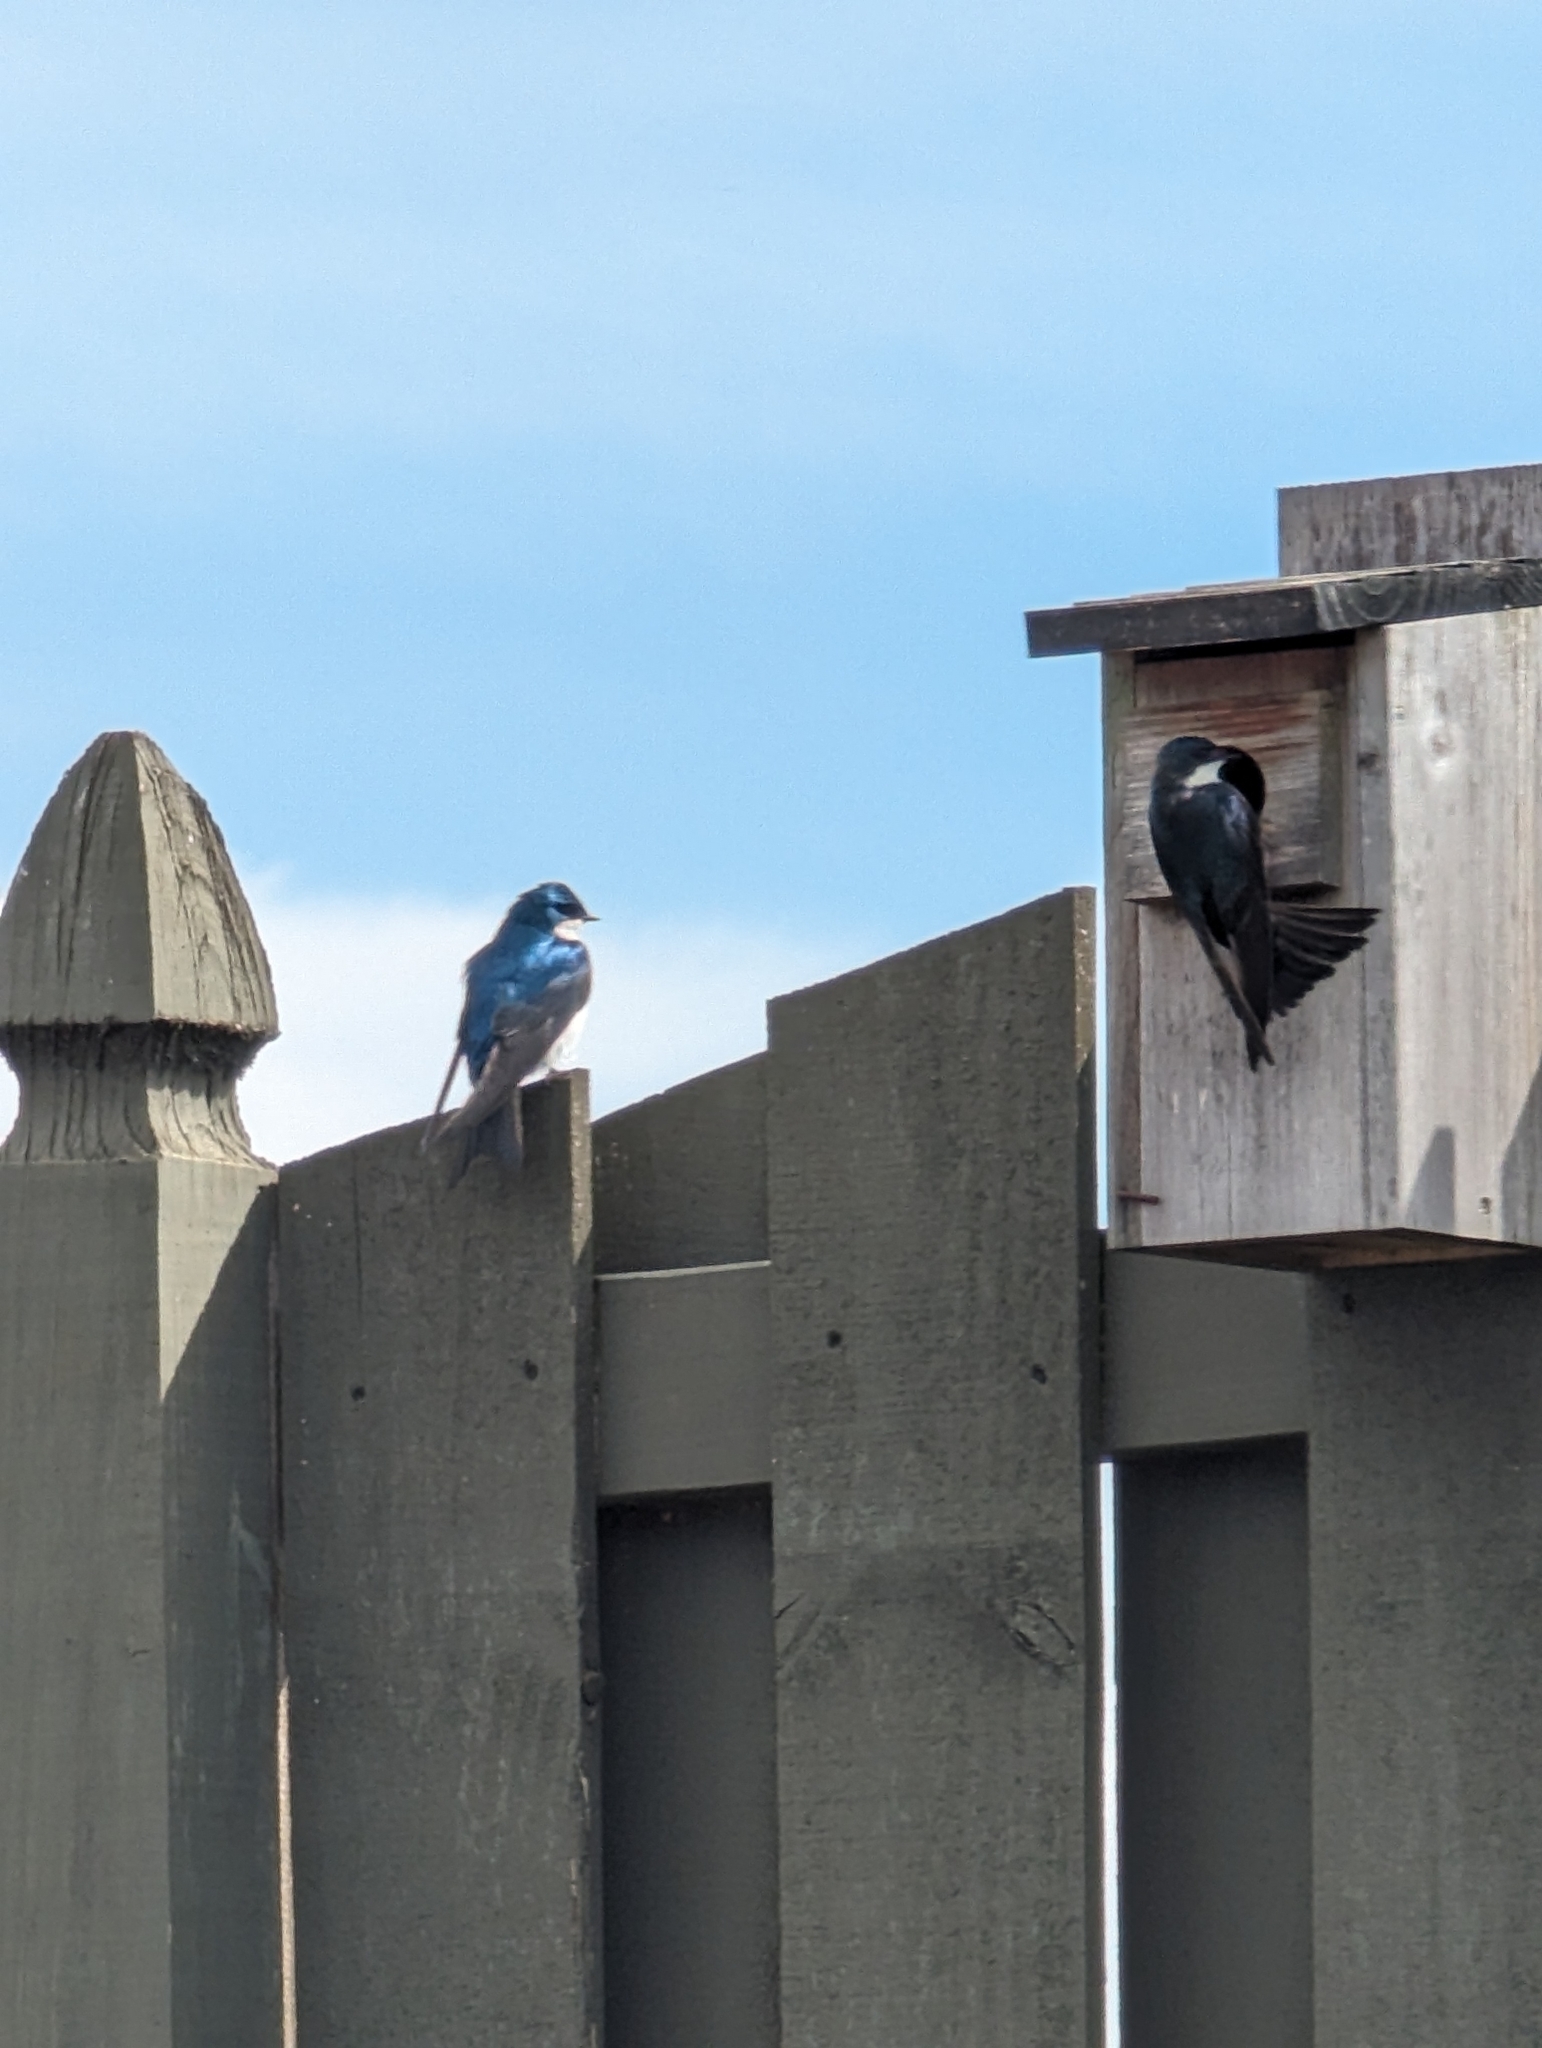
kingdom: Animalia
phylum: Chordata
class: Aves
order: Passeriformes
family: Hirundinidae
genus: Tachycineta
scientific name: Tachycineta bicolor
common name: Tree swallow
